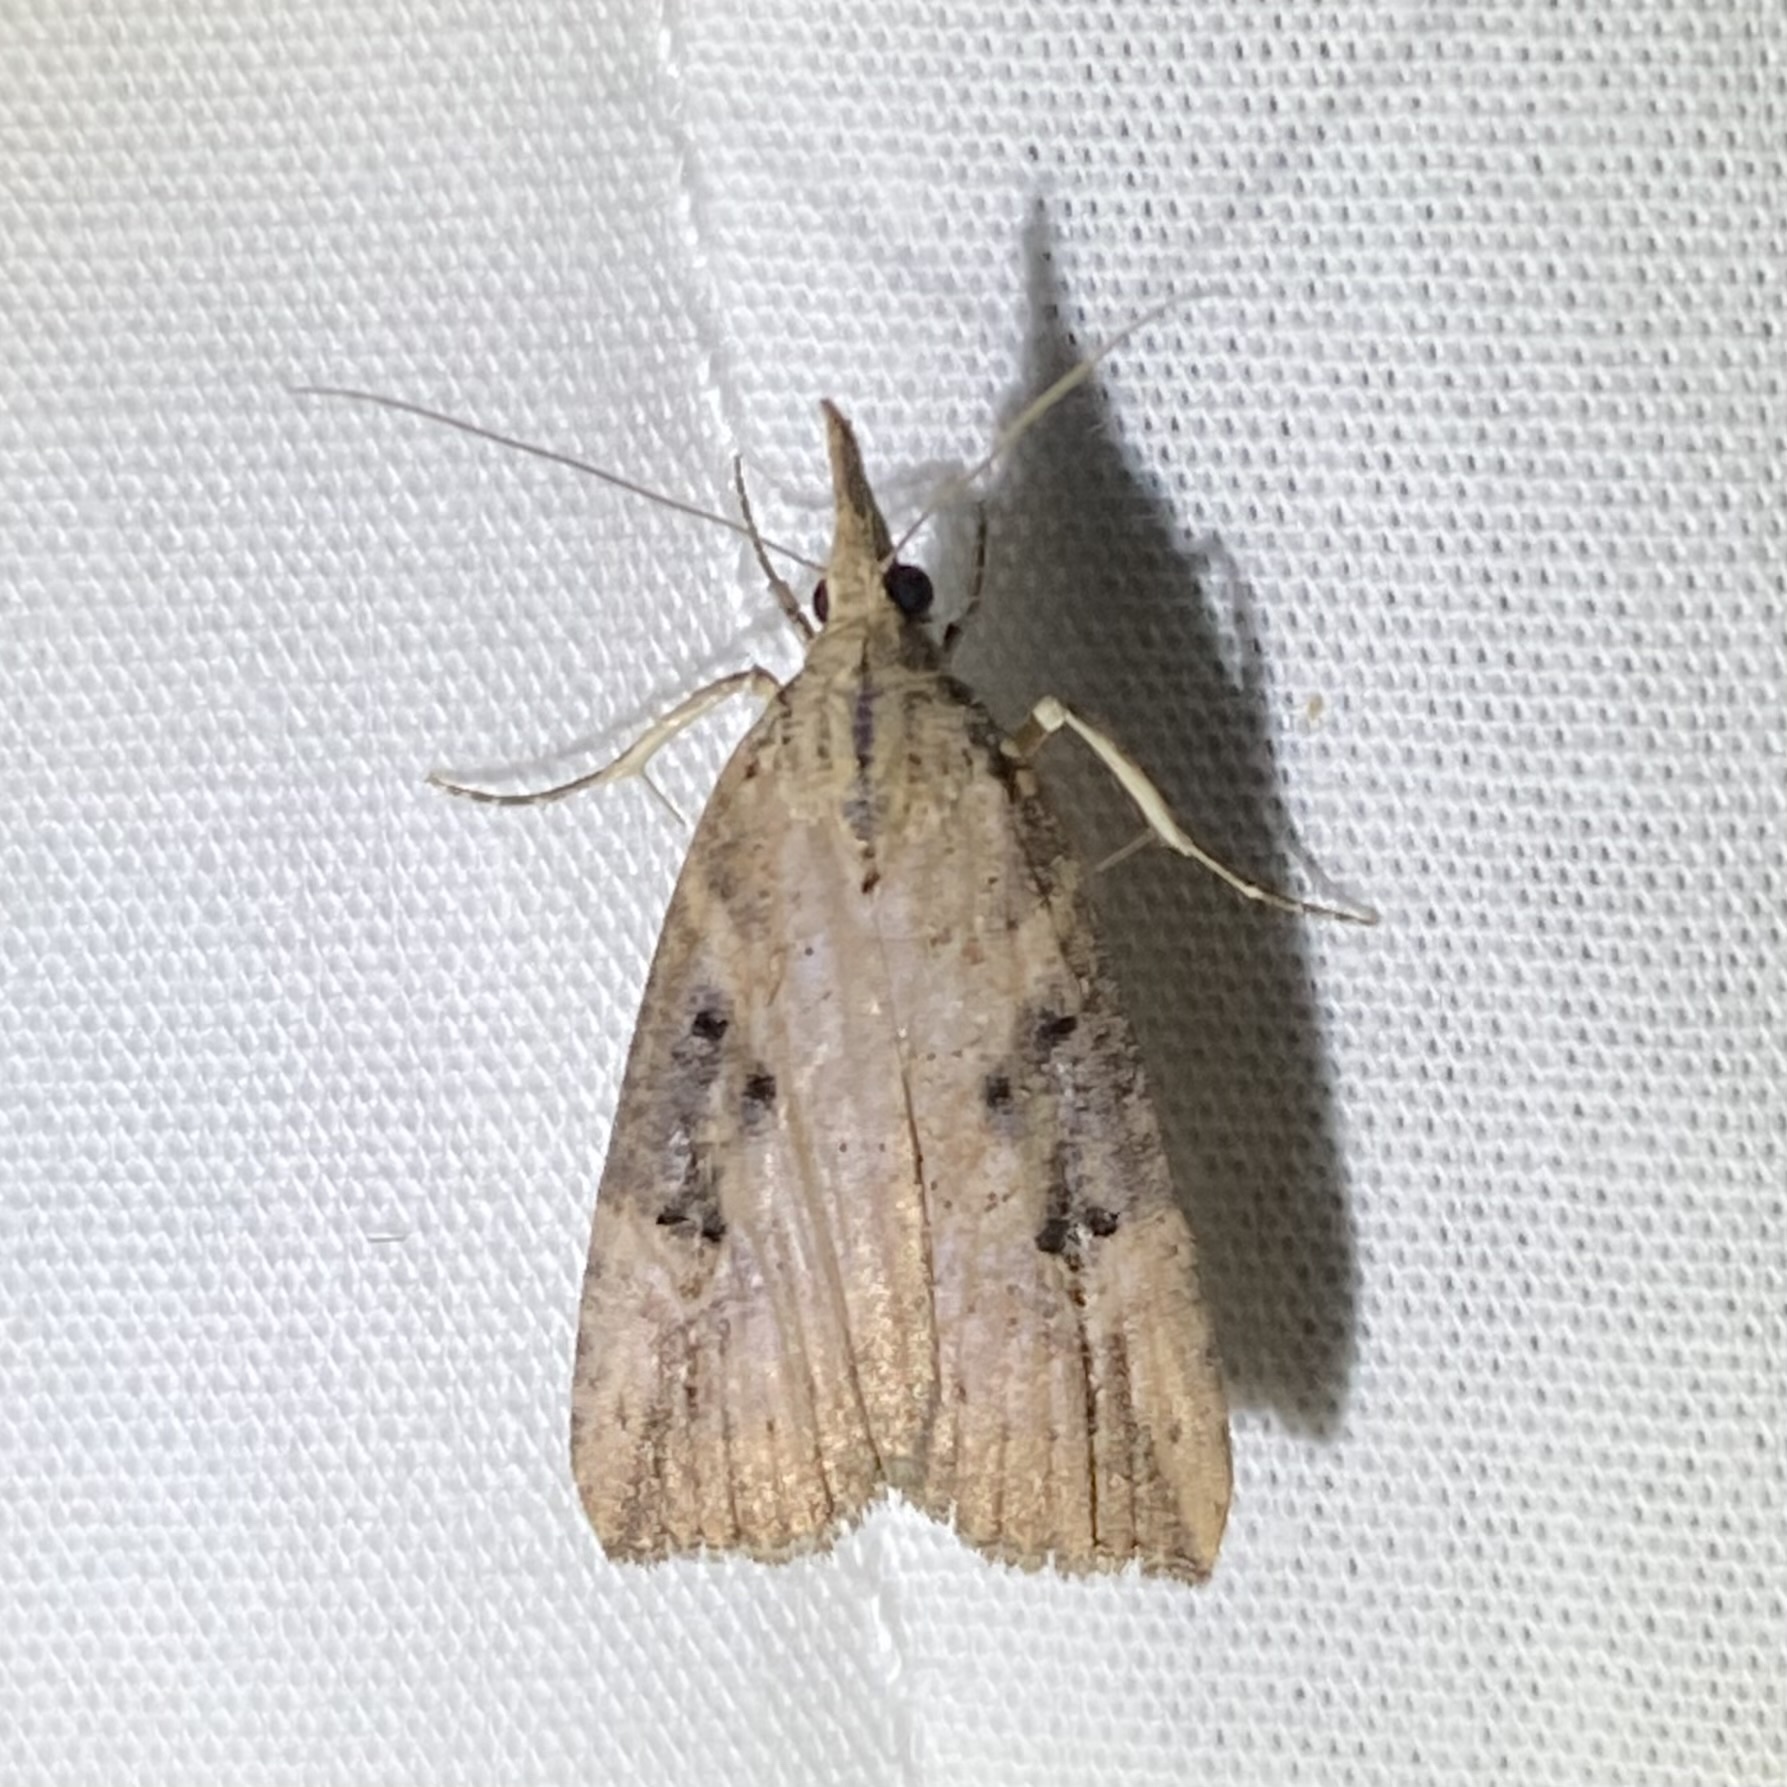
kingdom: Animalia
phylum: Arthropoda
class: Insecta
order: Lepidoptera
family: Erebidae
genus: Hypena
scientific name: Hypena humuli
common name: Hop vine snout
